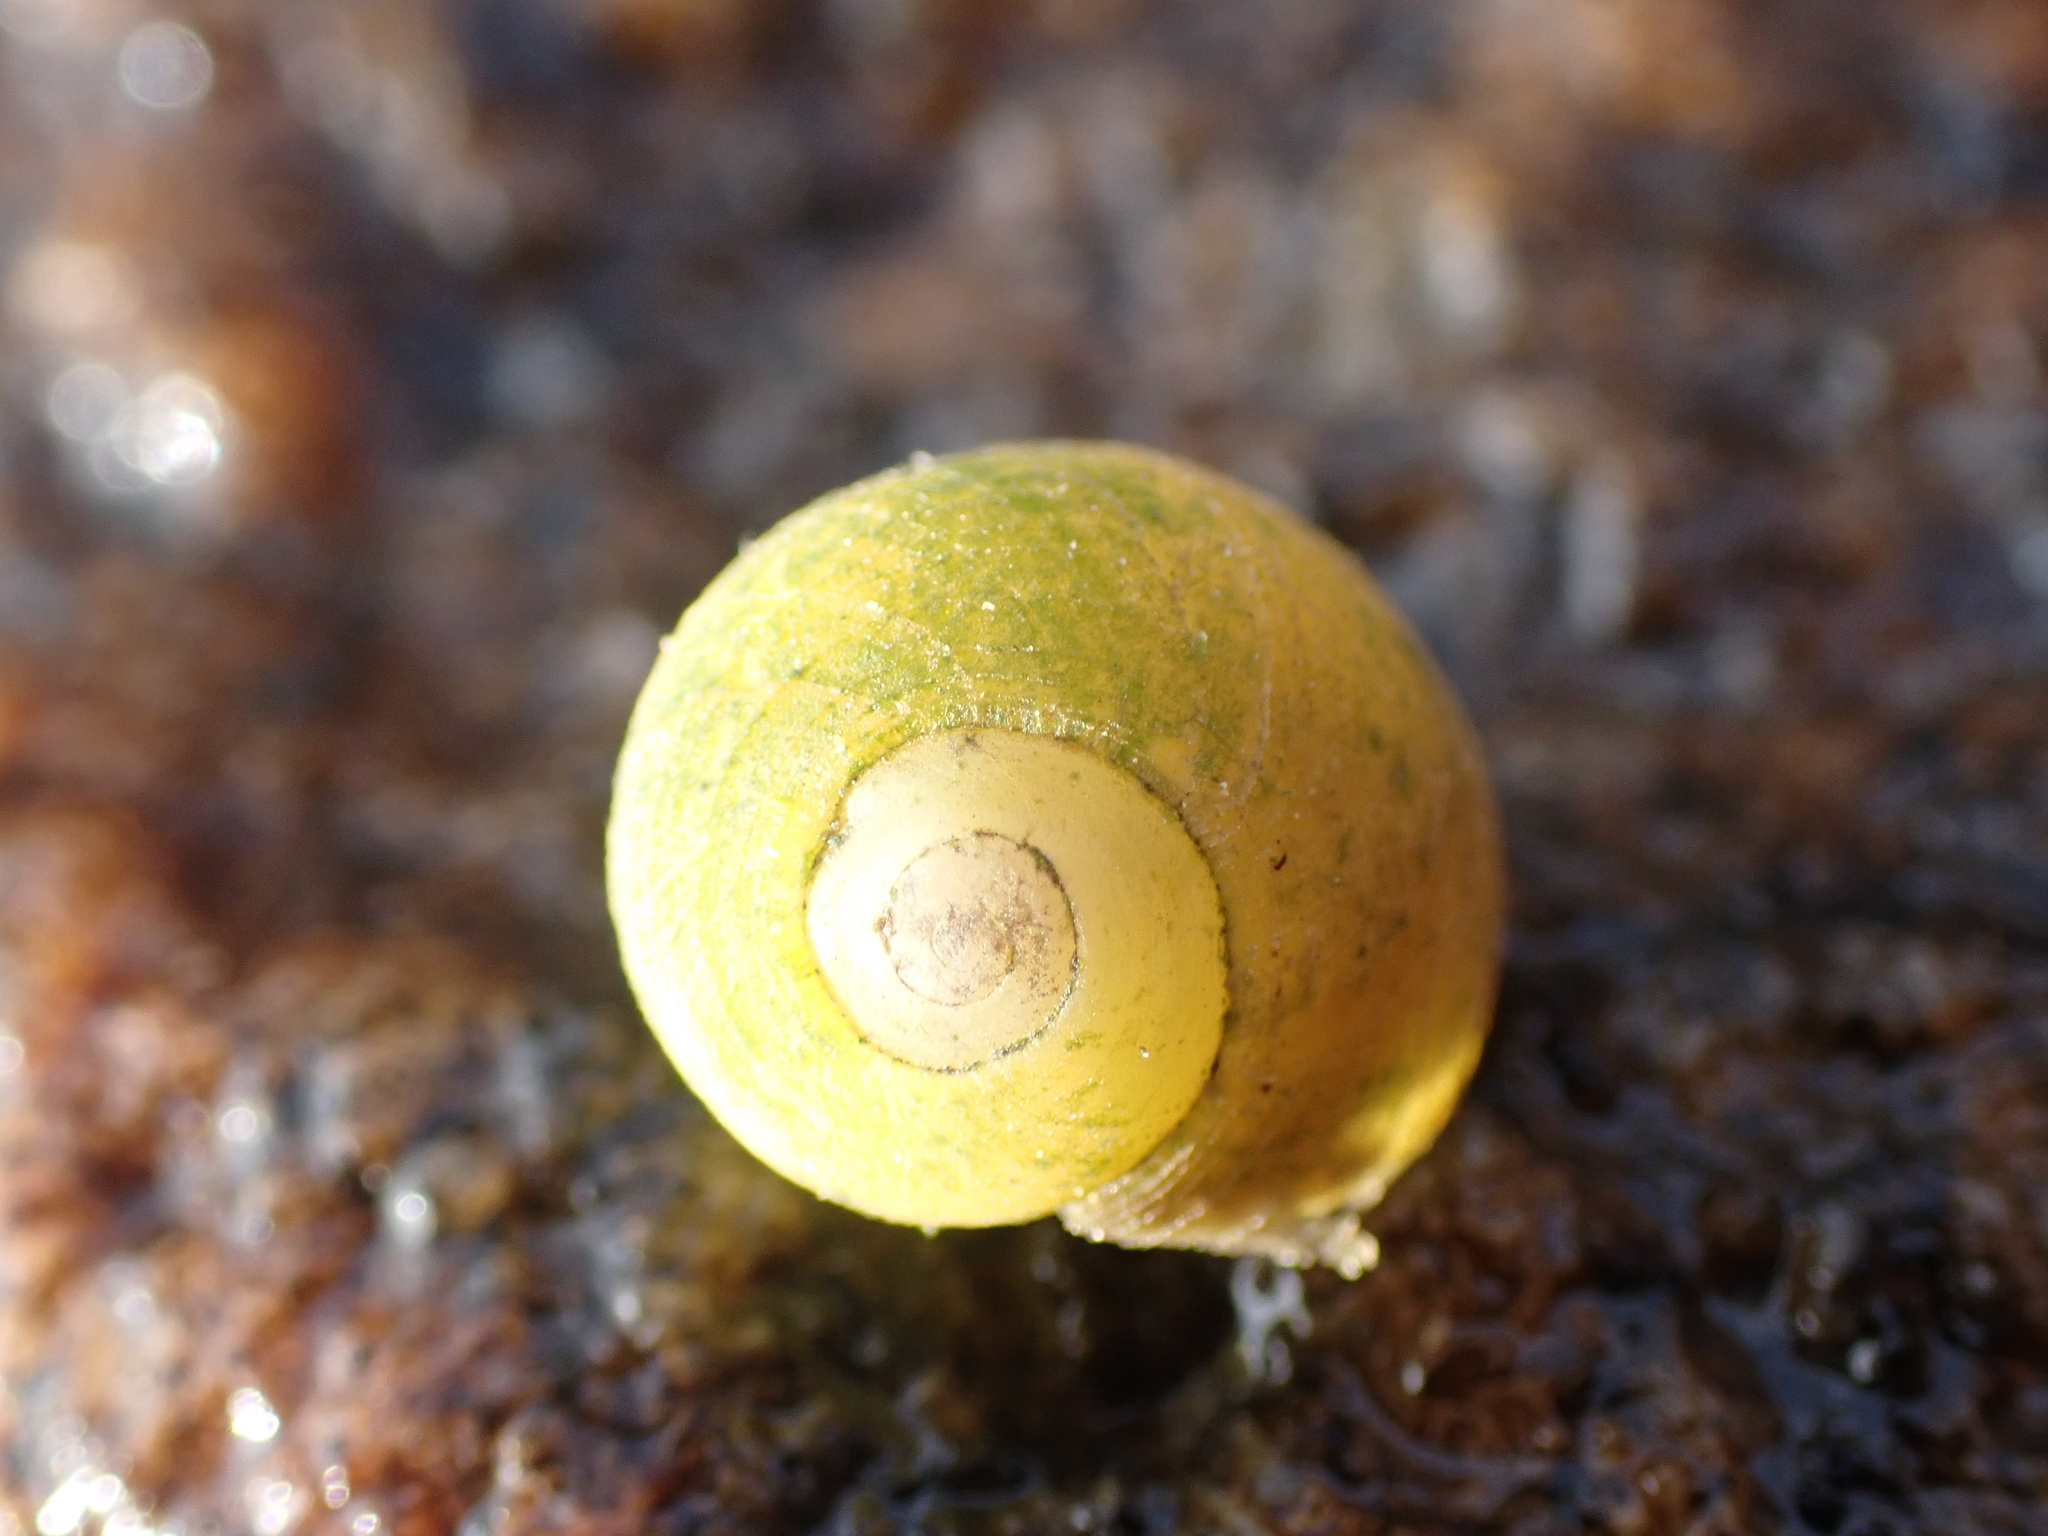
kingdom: Plantae
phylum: Chlorophyta
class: Ulvophyceae
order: Ulvales
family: Kornmanniaceae
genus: Tellamia
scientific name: Tellamia contorta
